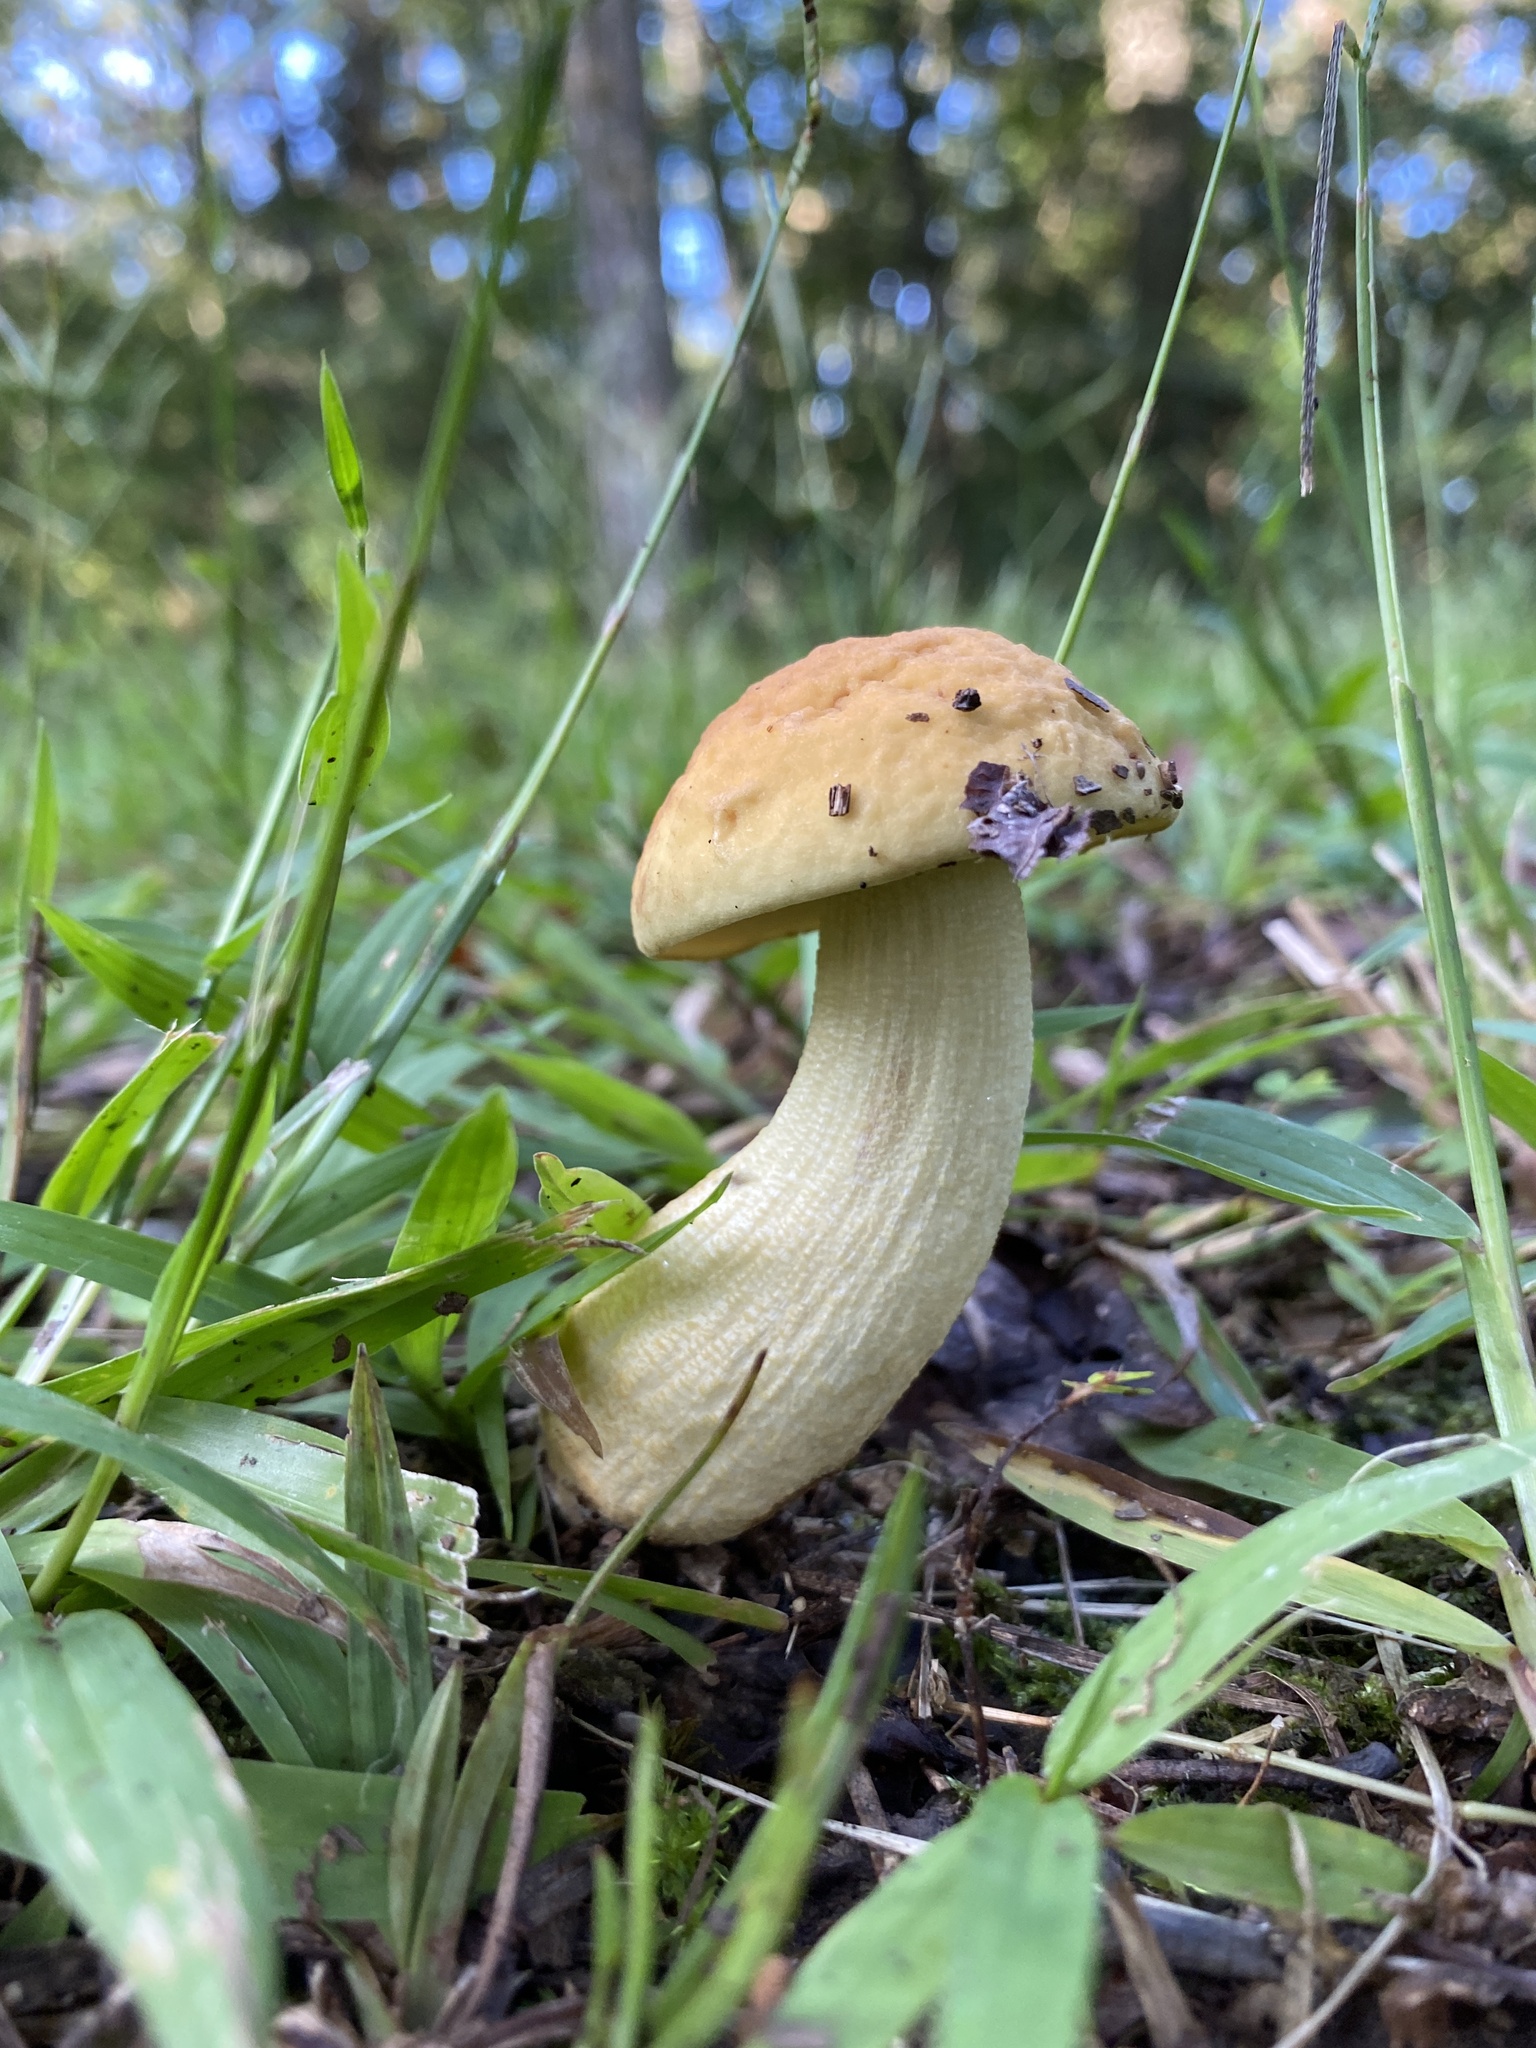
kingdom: Fungi
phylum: Basidiomycota
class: Agaricomycetes
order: Boletales
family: Boletaceae
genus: Leccinellum
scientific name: Leccinellum rugosiceps
